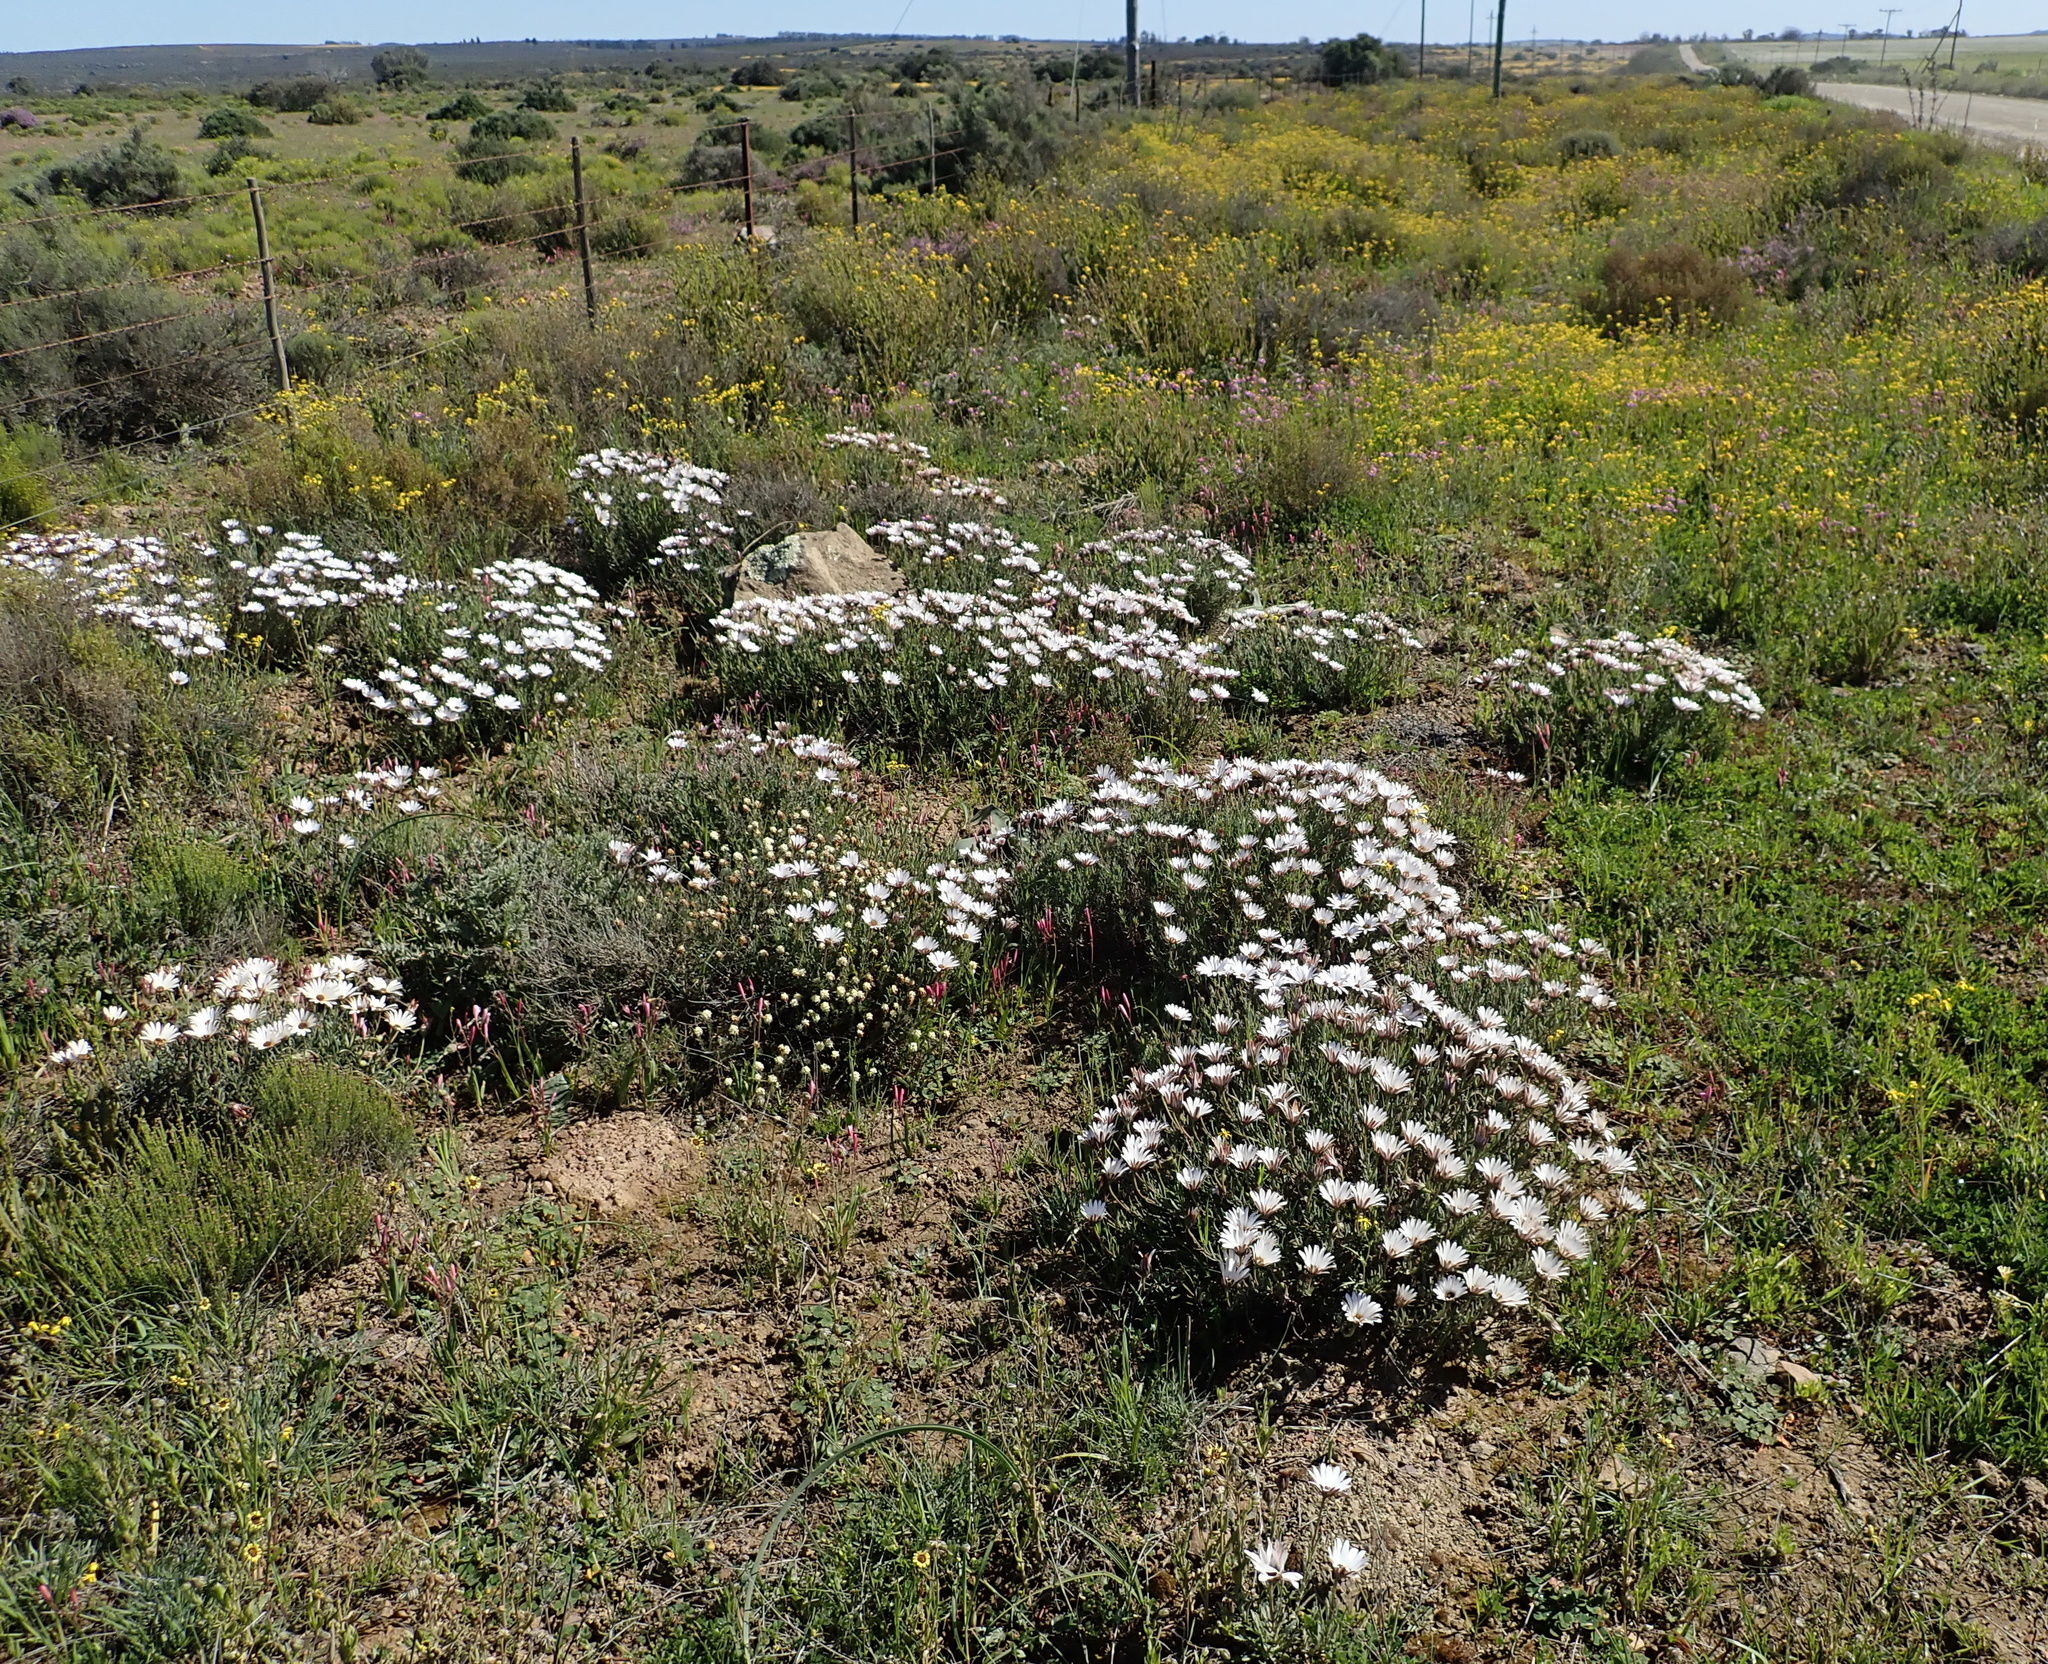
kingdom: Plantae
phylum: Tracheophyta
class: Magnoliopsida
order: Asterales
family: Asteraceae
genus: Dimorphotheca
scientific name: Dimorphotheca nudicaulis
